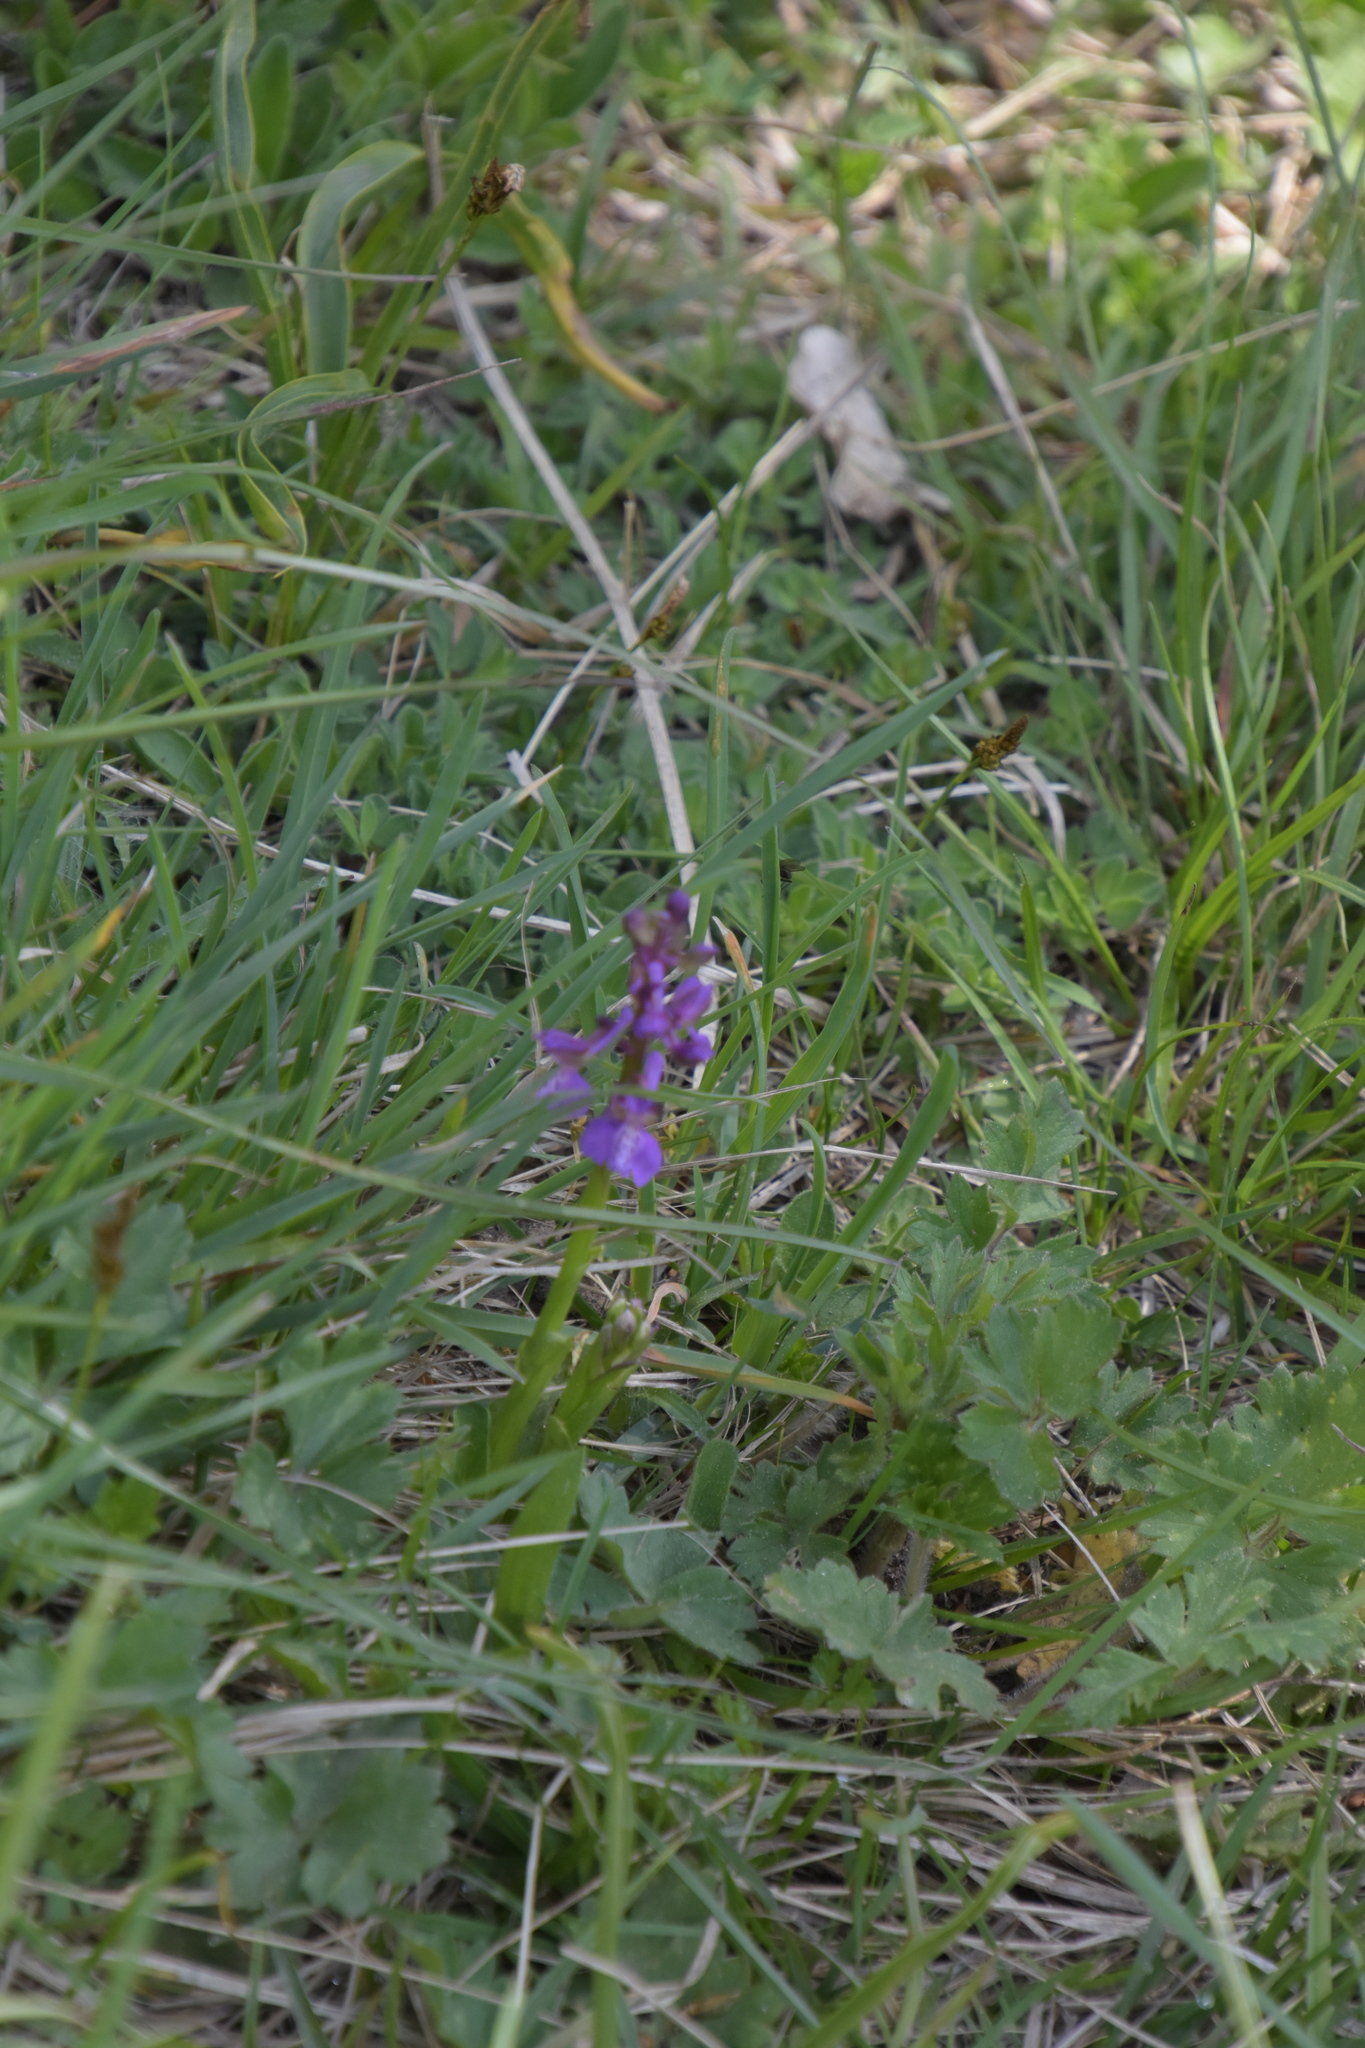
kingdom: Plantae
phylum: Tracheophyta
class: Liliopsida
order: Asparagales
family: Orchidaceae
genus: Anacamptis
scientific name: Anacamptis morio
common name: Green-winged orchid
